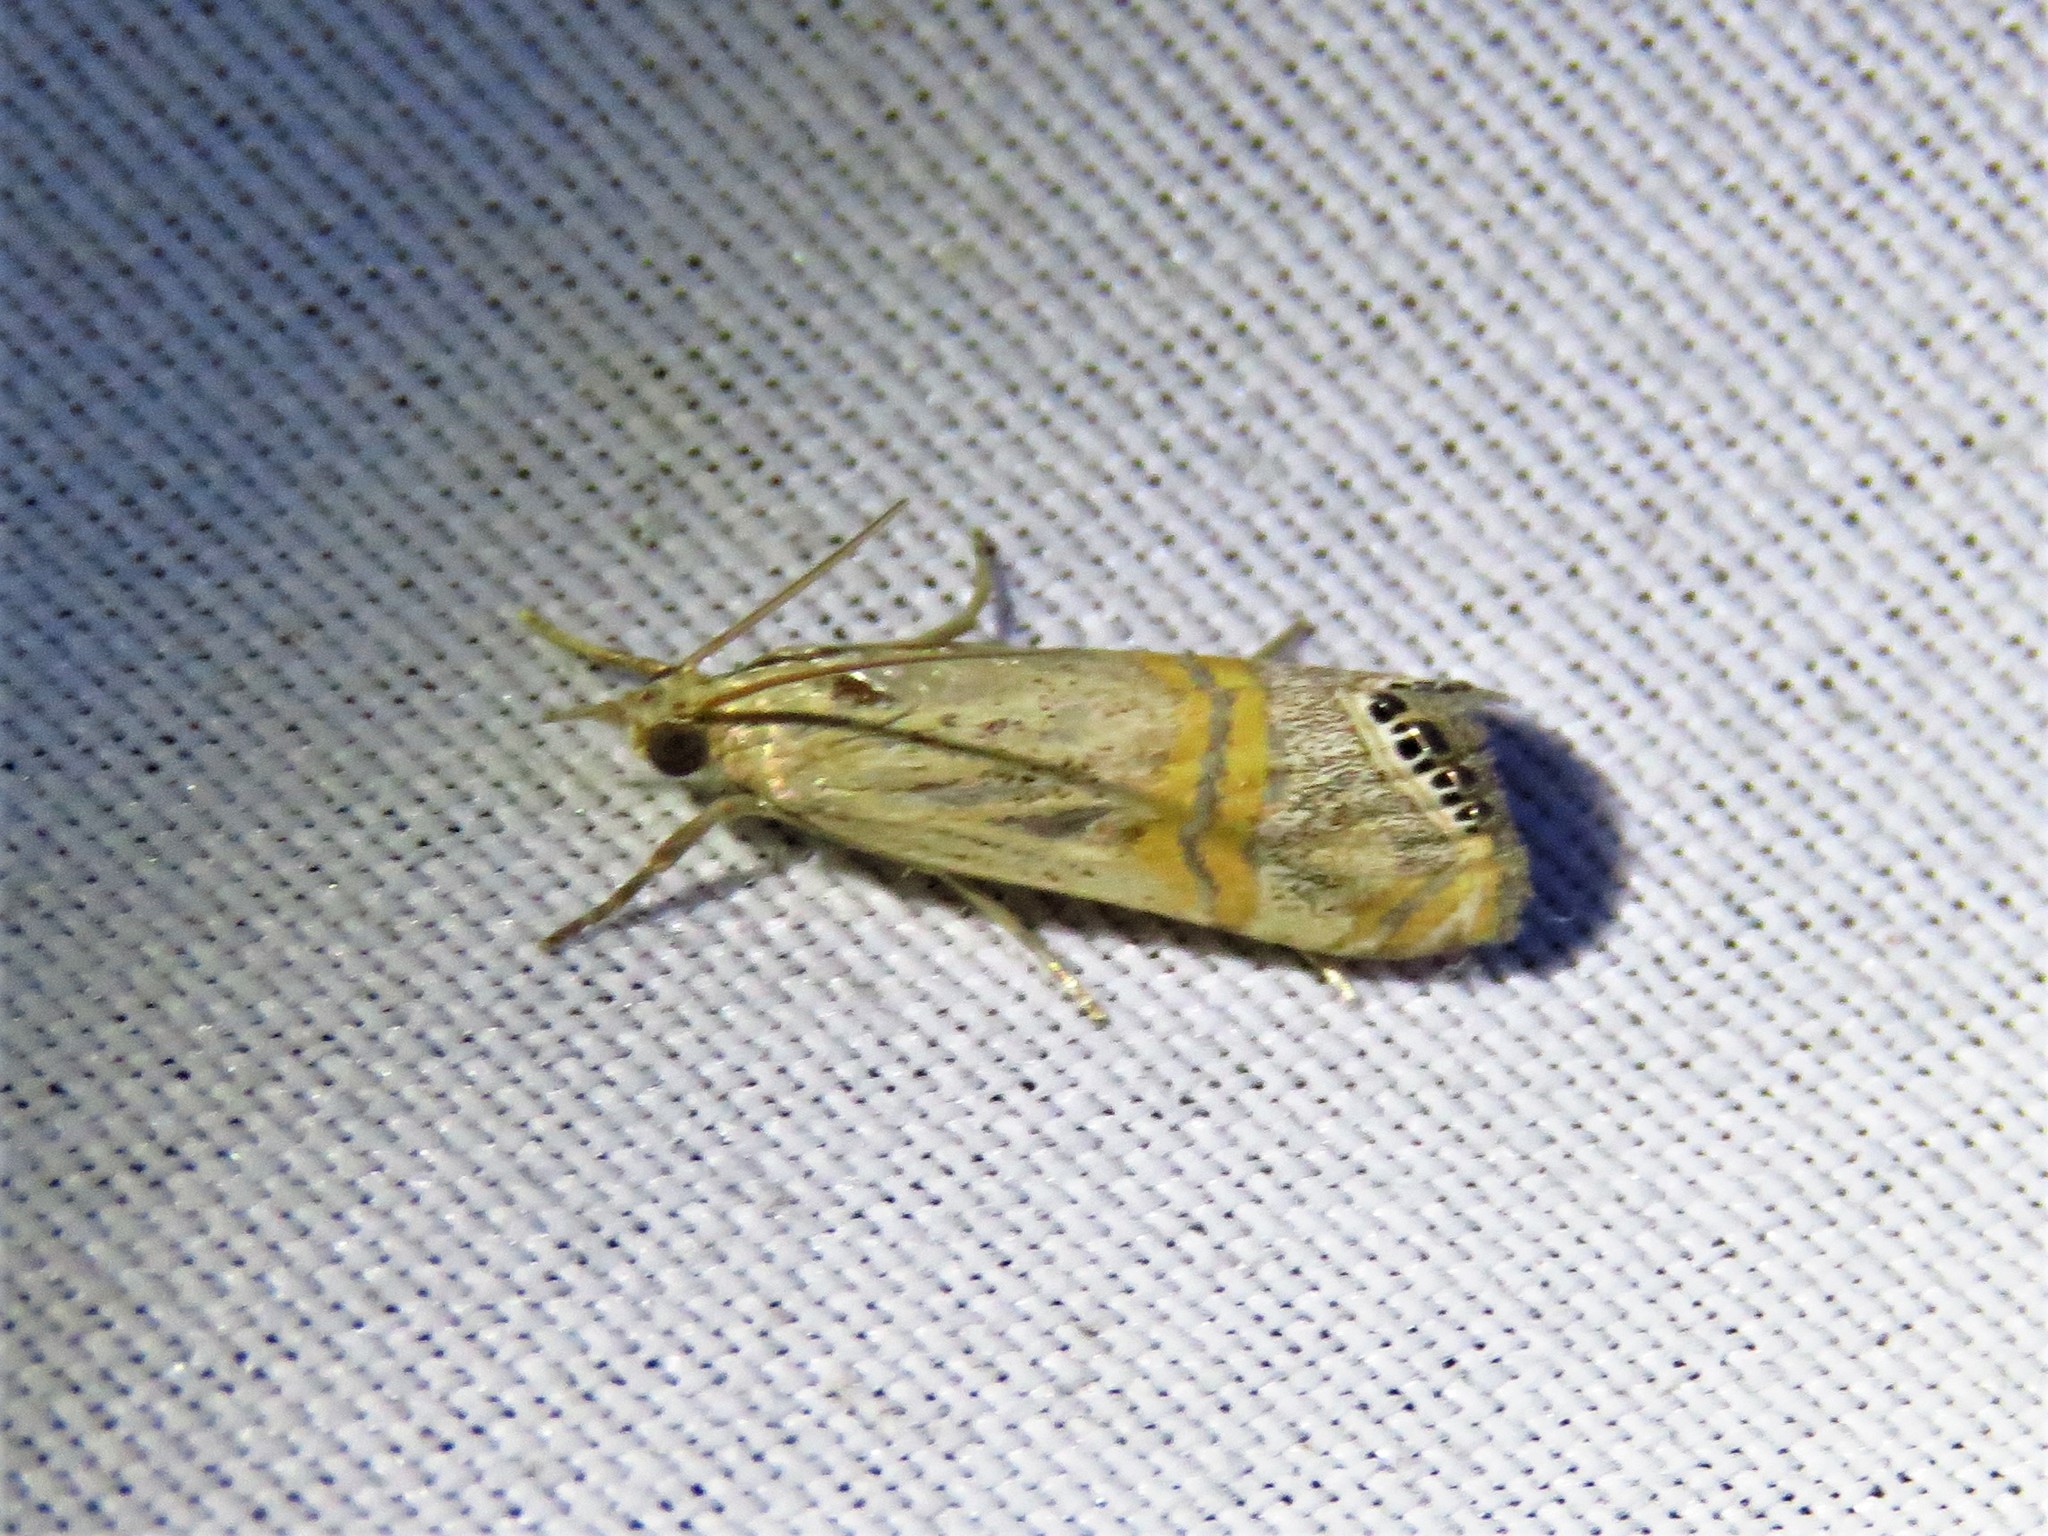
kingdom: Animalia
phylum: Arthropoda
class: Insecta
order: Lepidoptera
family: Crambidae
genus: Euchromius
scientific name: Euchromius ocellea
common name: Necklace veneer moth
